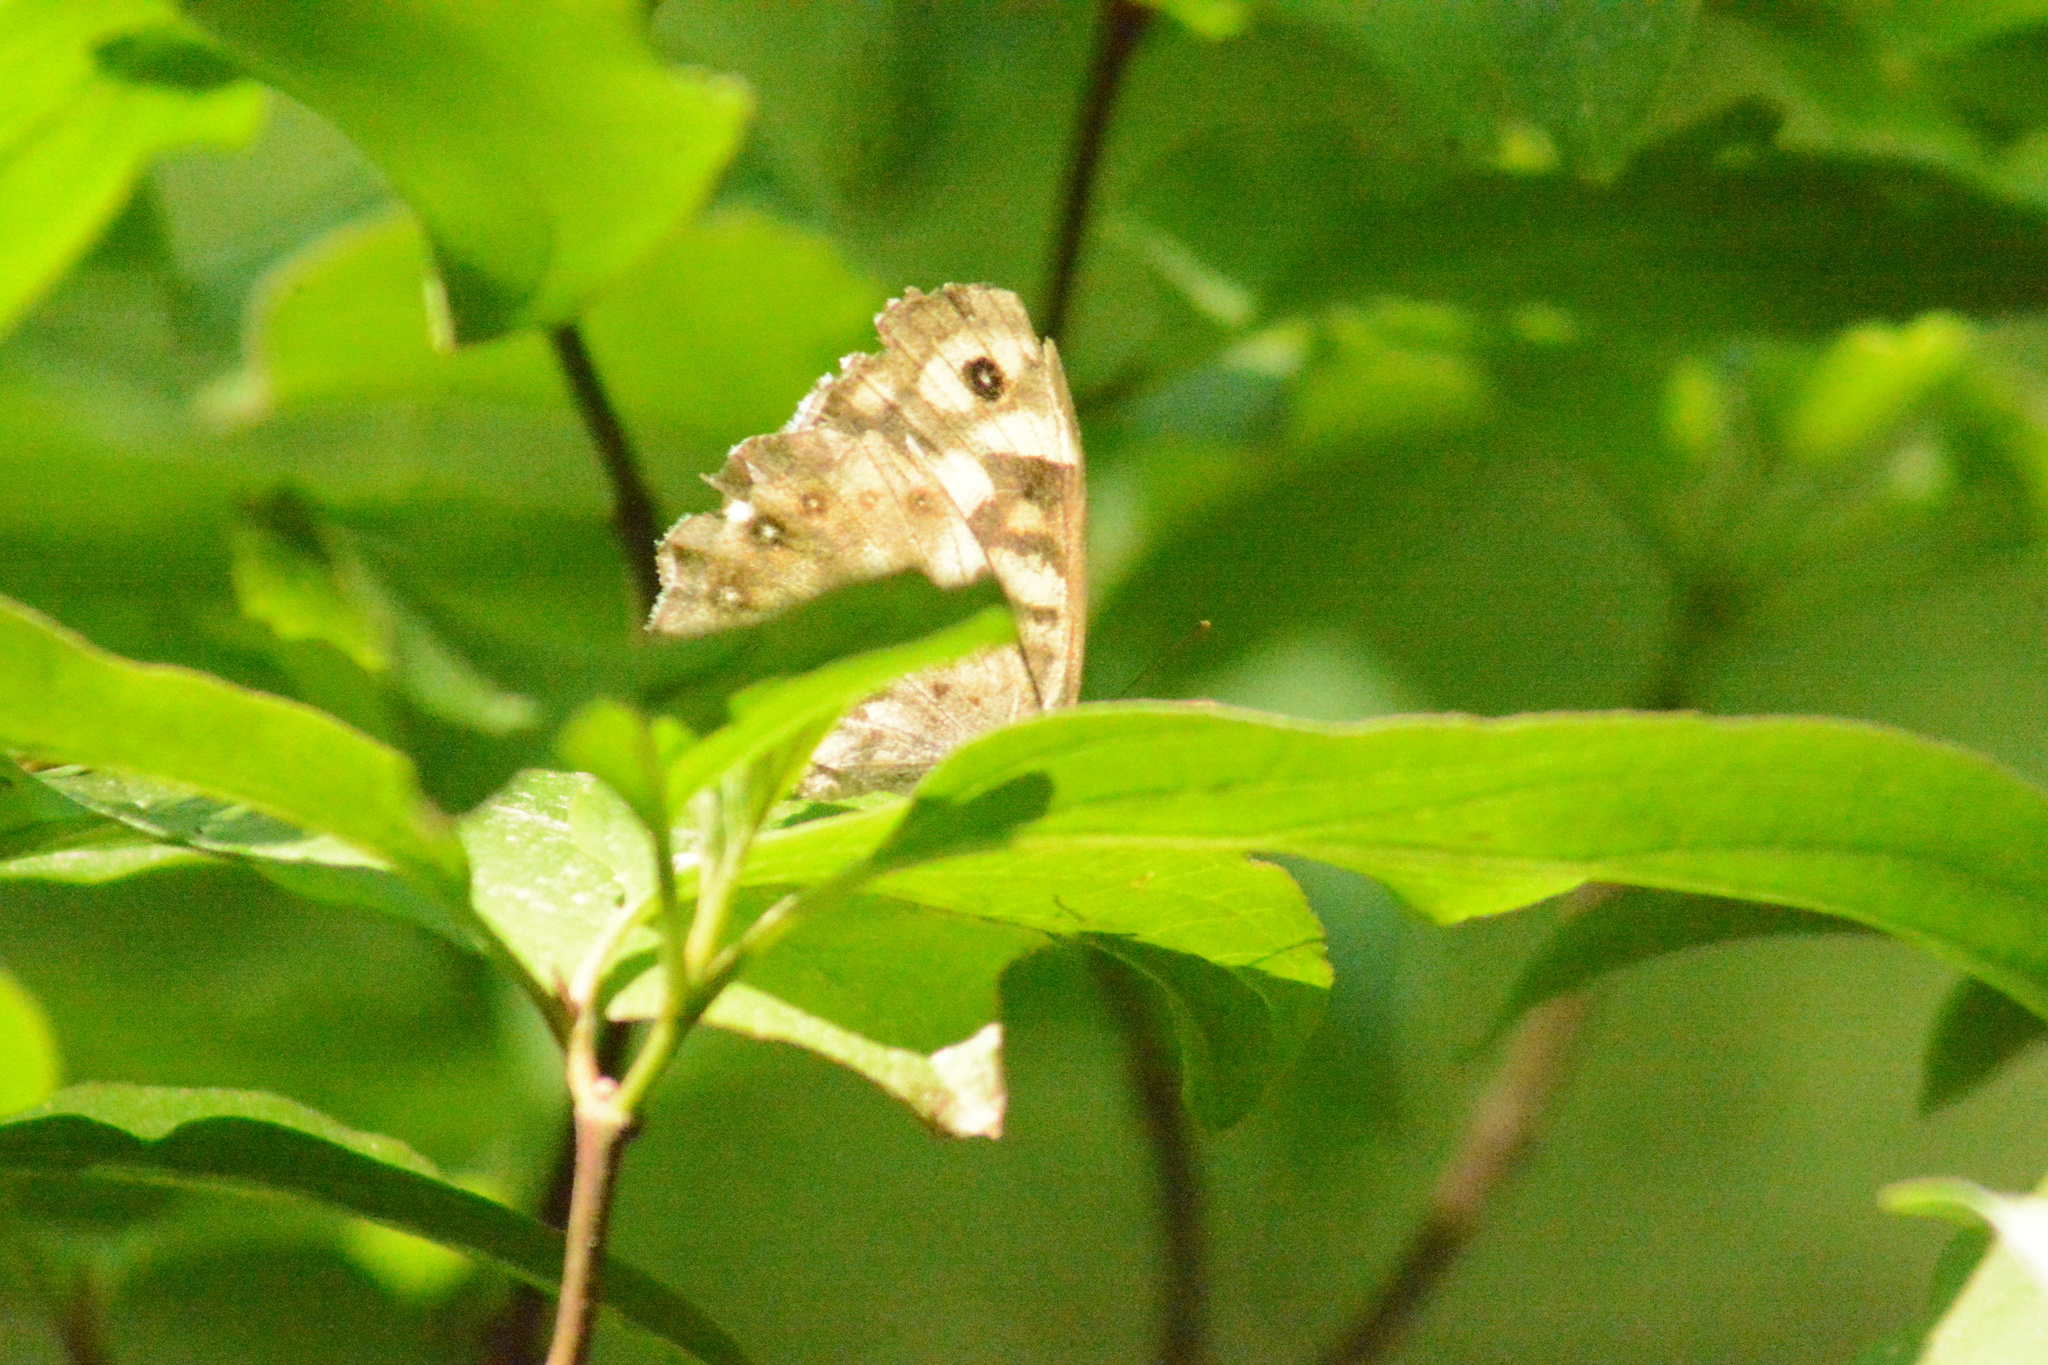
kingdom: Animalia
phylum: Arthropoda
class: Insecta
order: Lepidoptera
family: Nymphalidae
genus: Pararge
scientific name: Pararge aegeria
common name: Speckled wood
